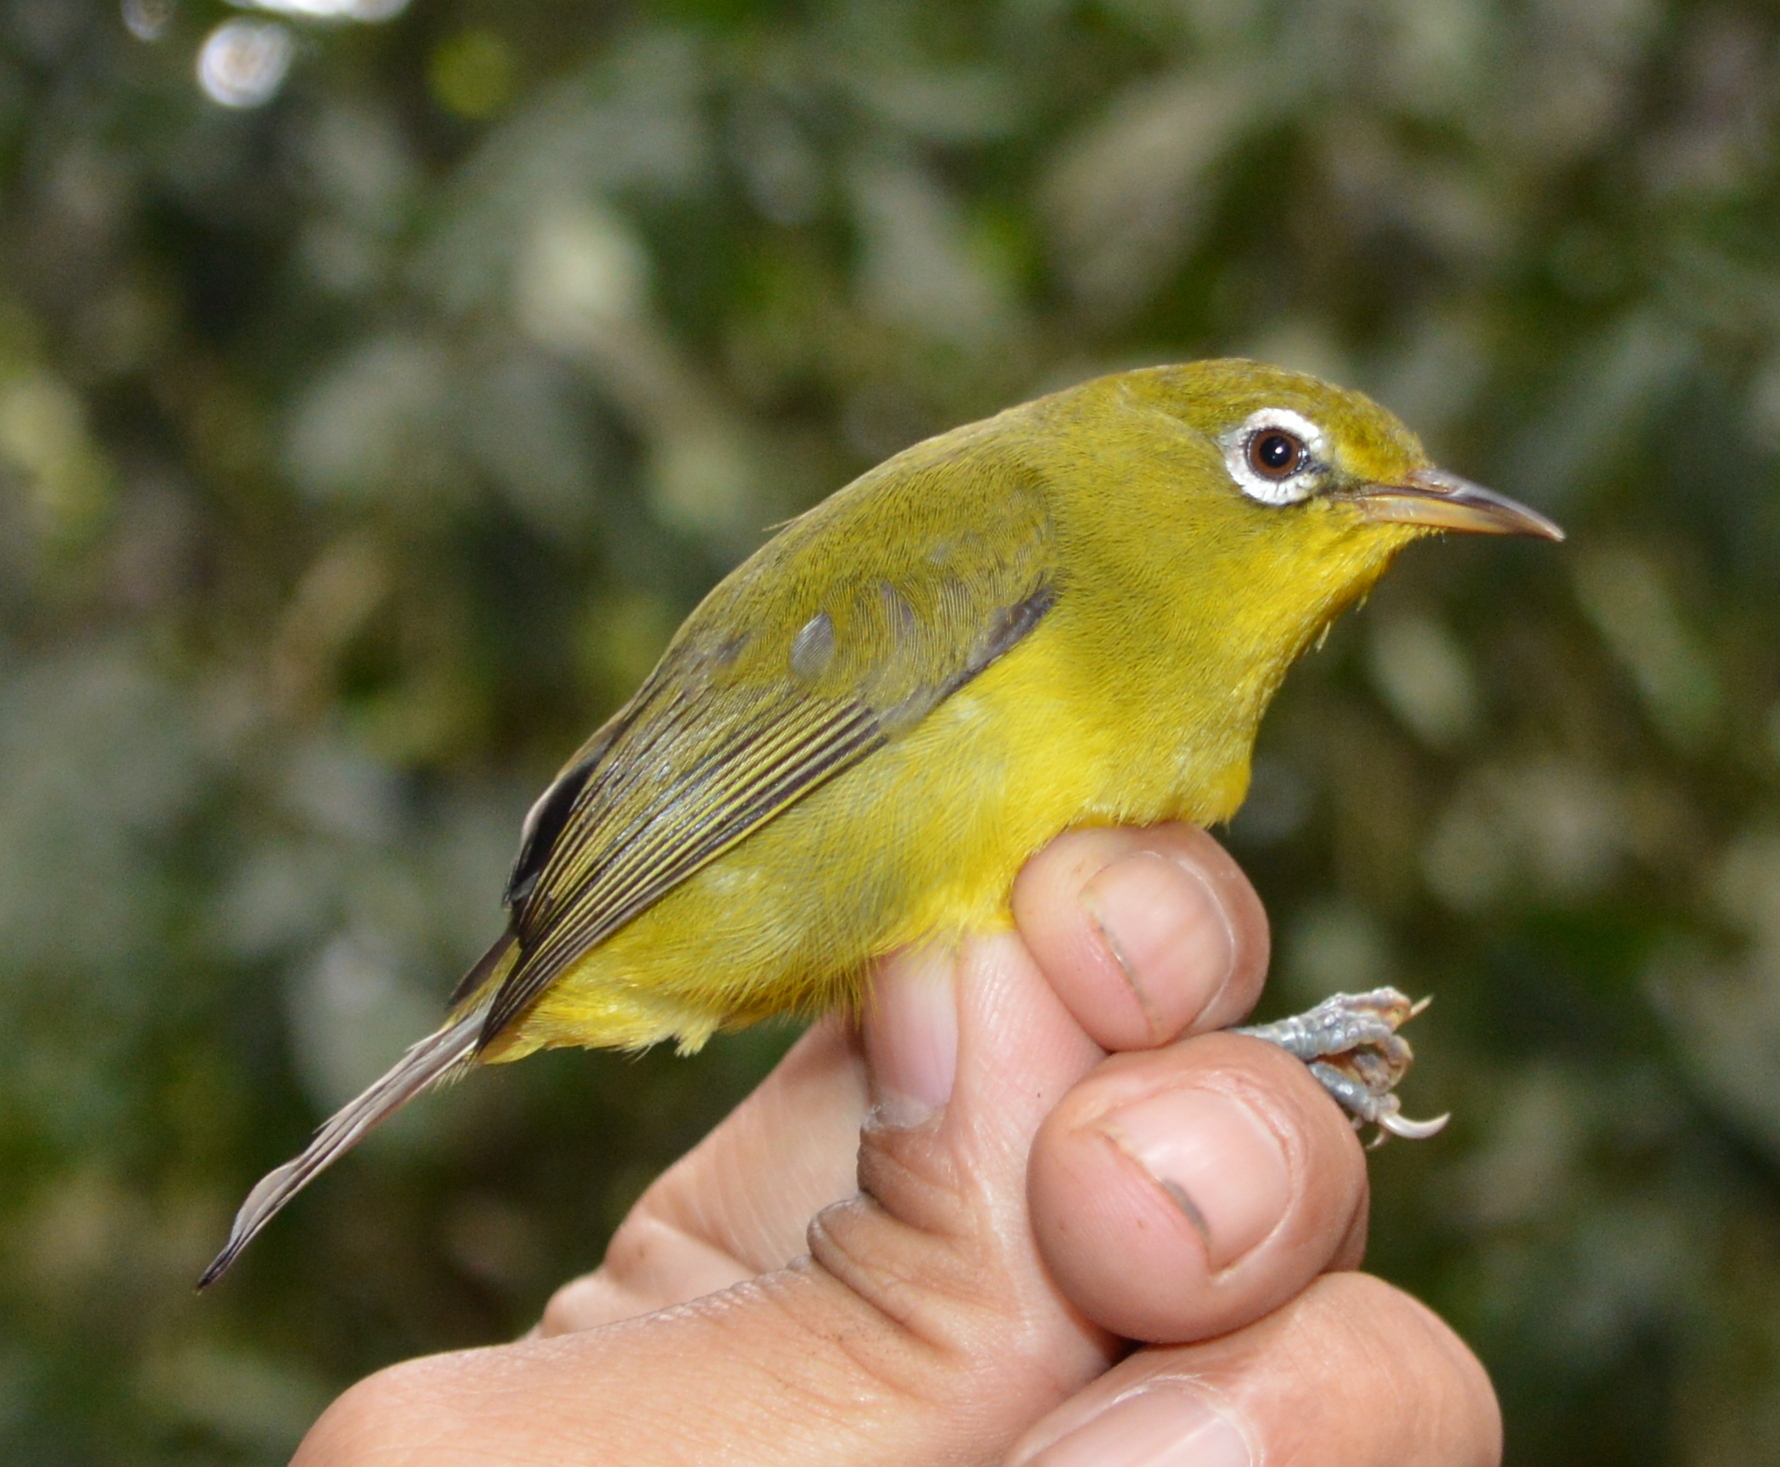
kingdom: Animalia
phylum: Chordata
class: Aves
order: Passeriformes
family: Zosteropidae
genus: Zosterops
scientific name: Zosterops meratusensis
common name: Meratus white-eye
